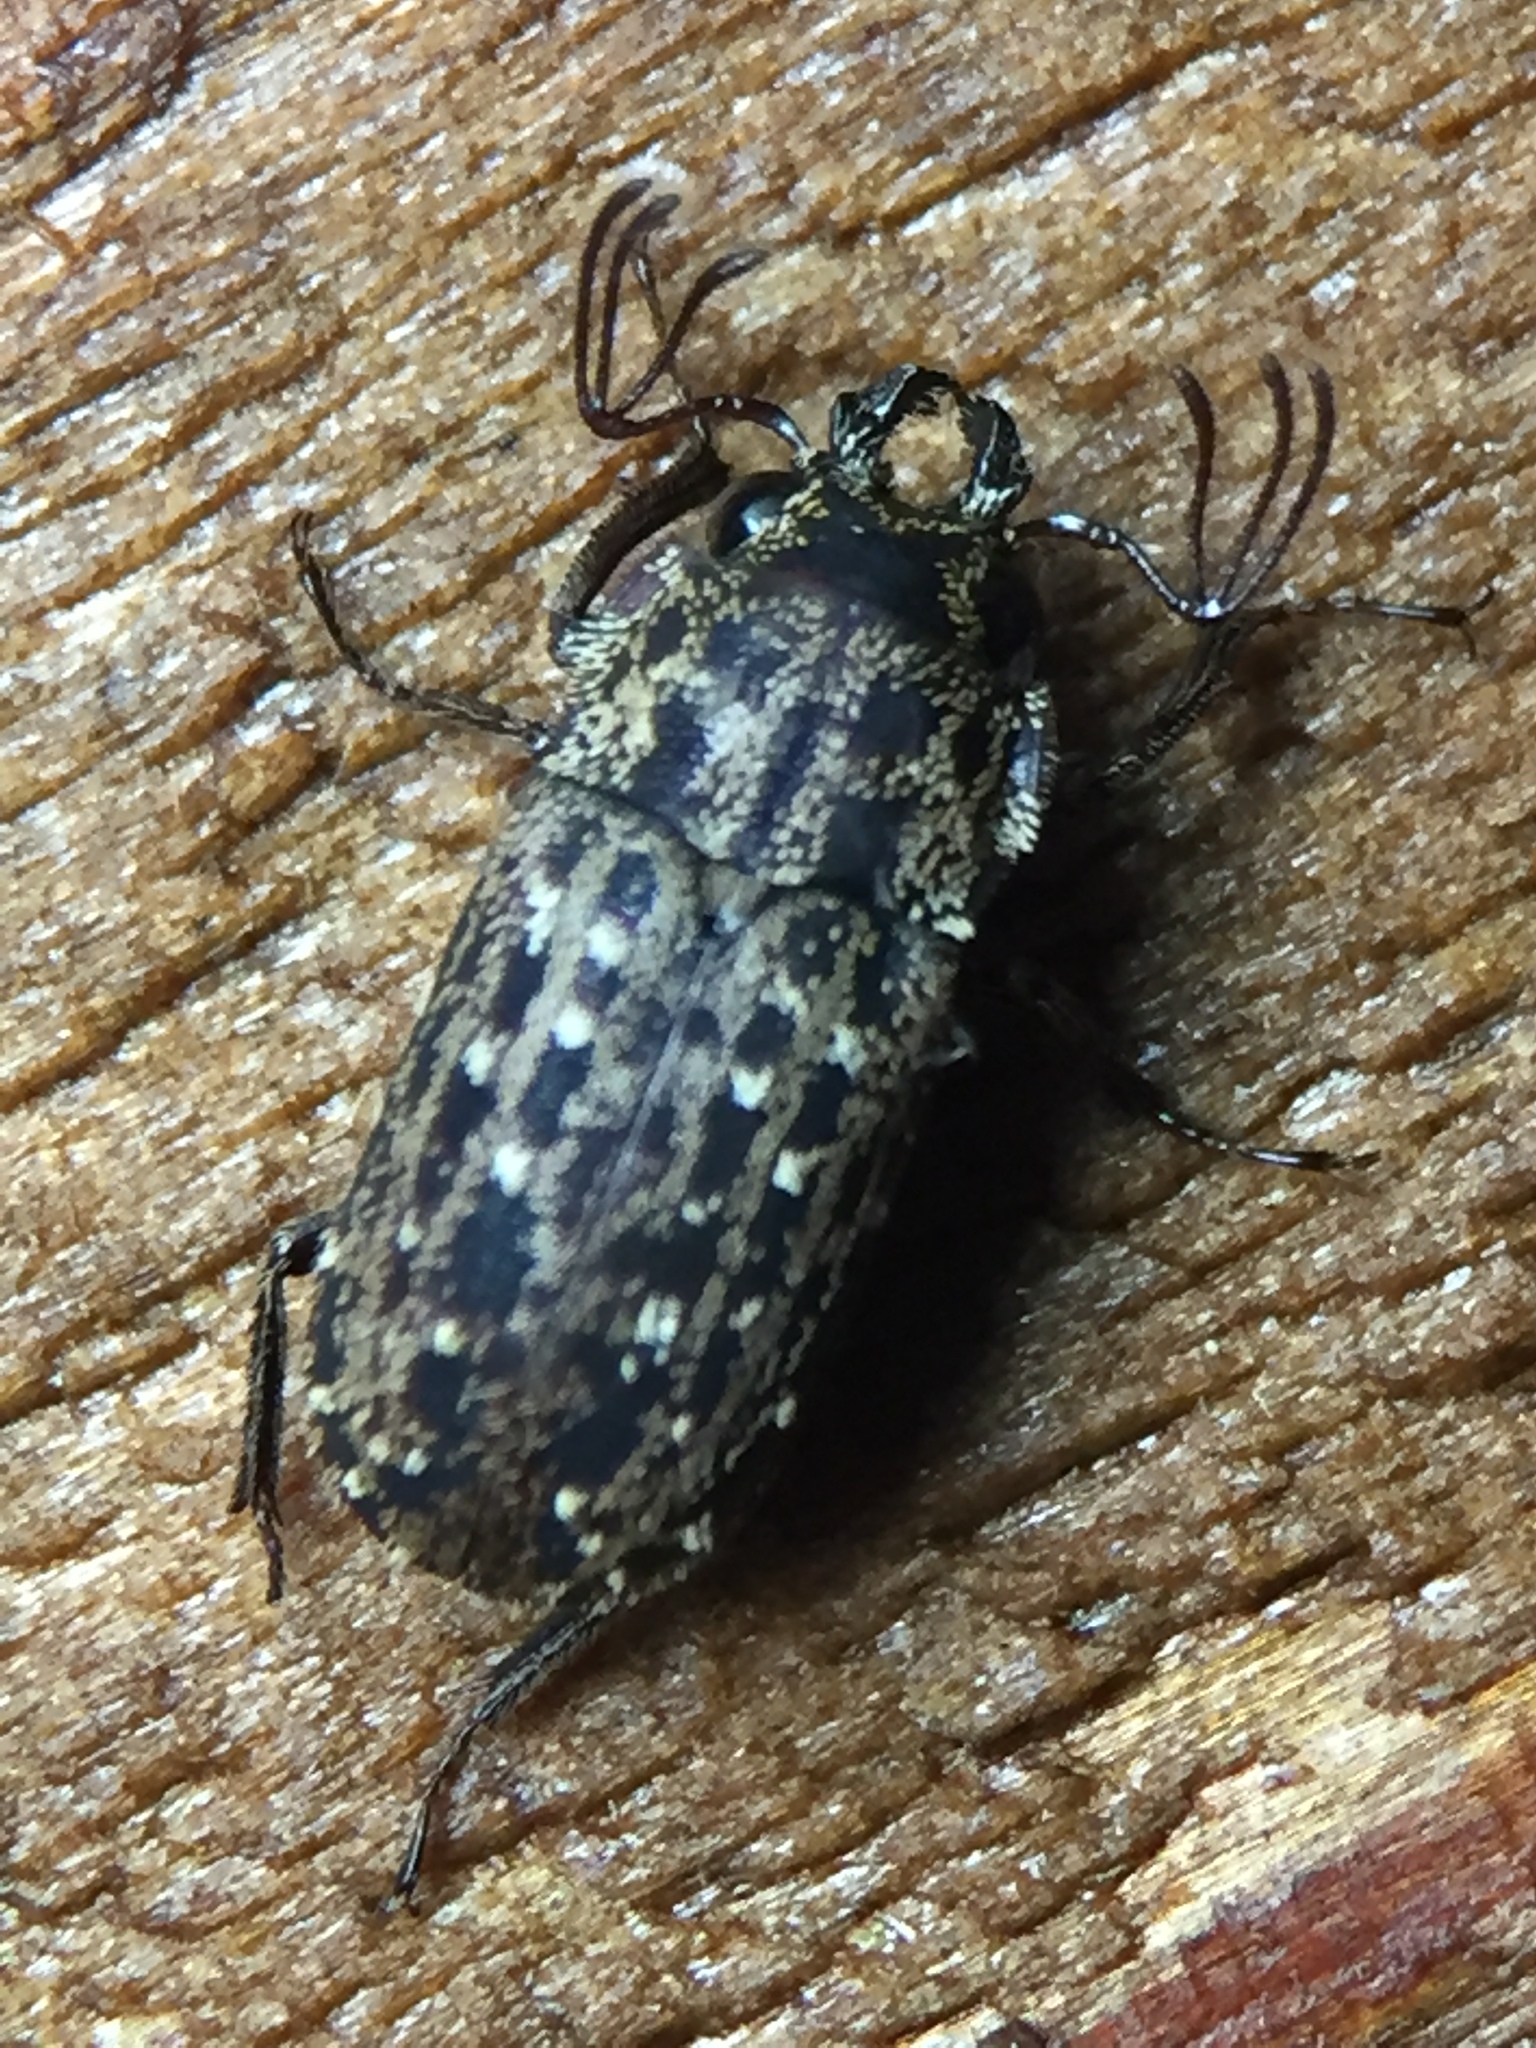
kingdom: Animalia
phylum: Arthropoda
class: Insecta
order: Coleoptera
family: Lucanidae
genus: Mitophyllus
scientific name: Mitophyllus arcuatus
